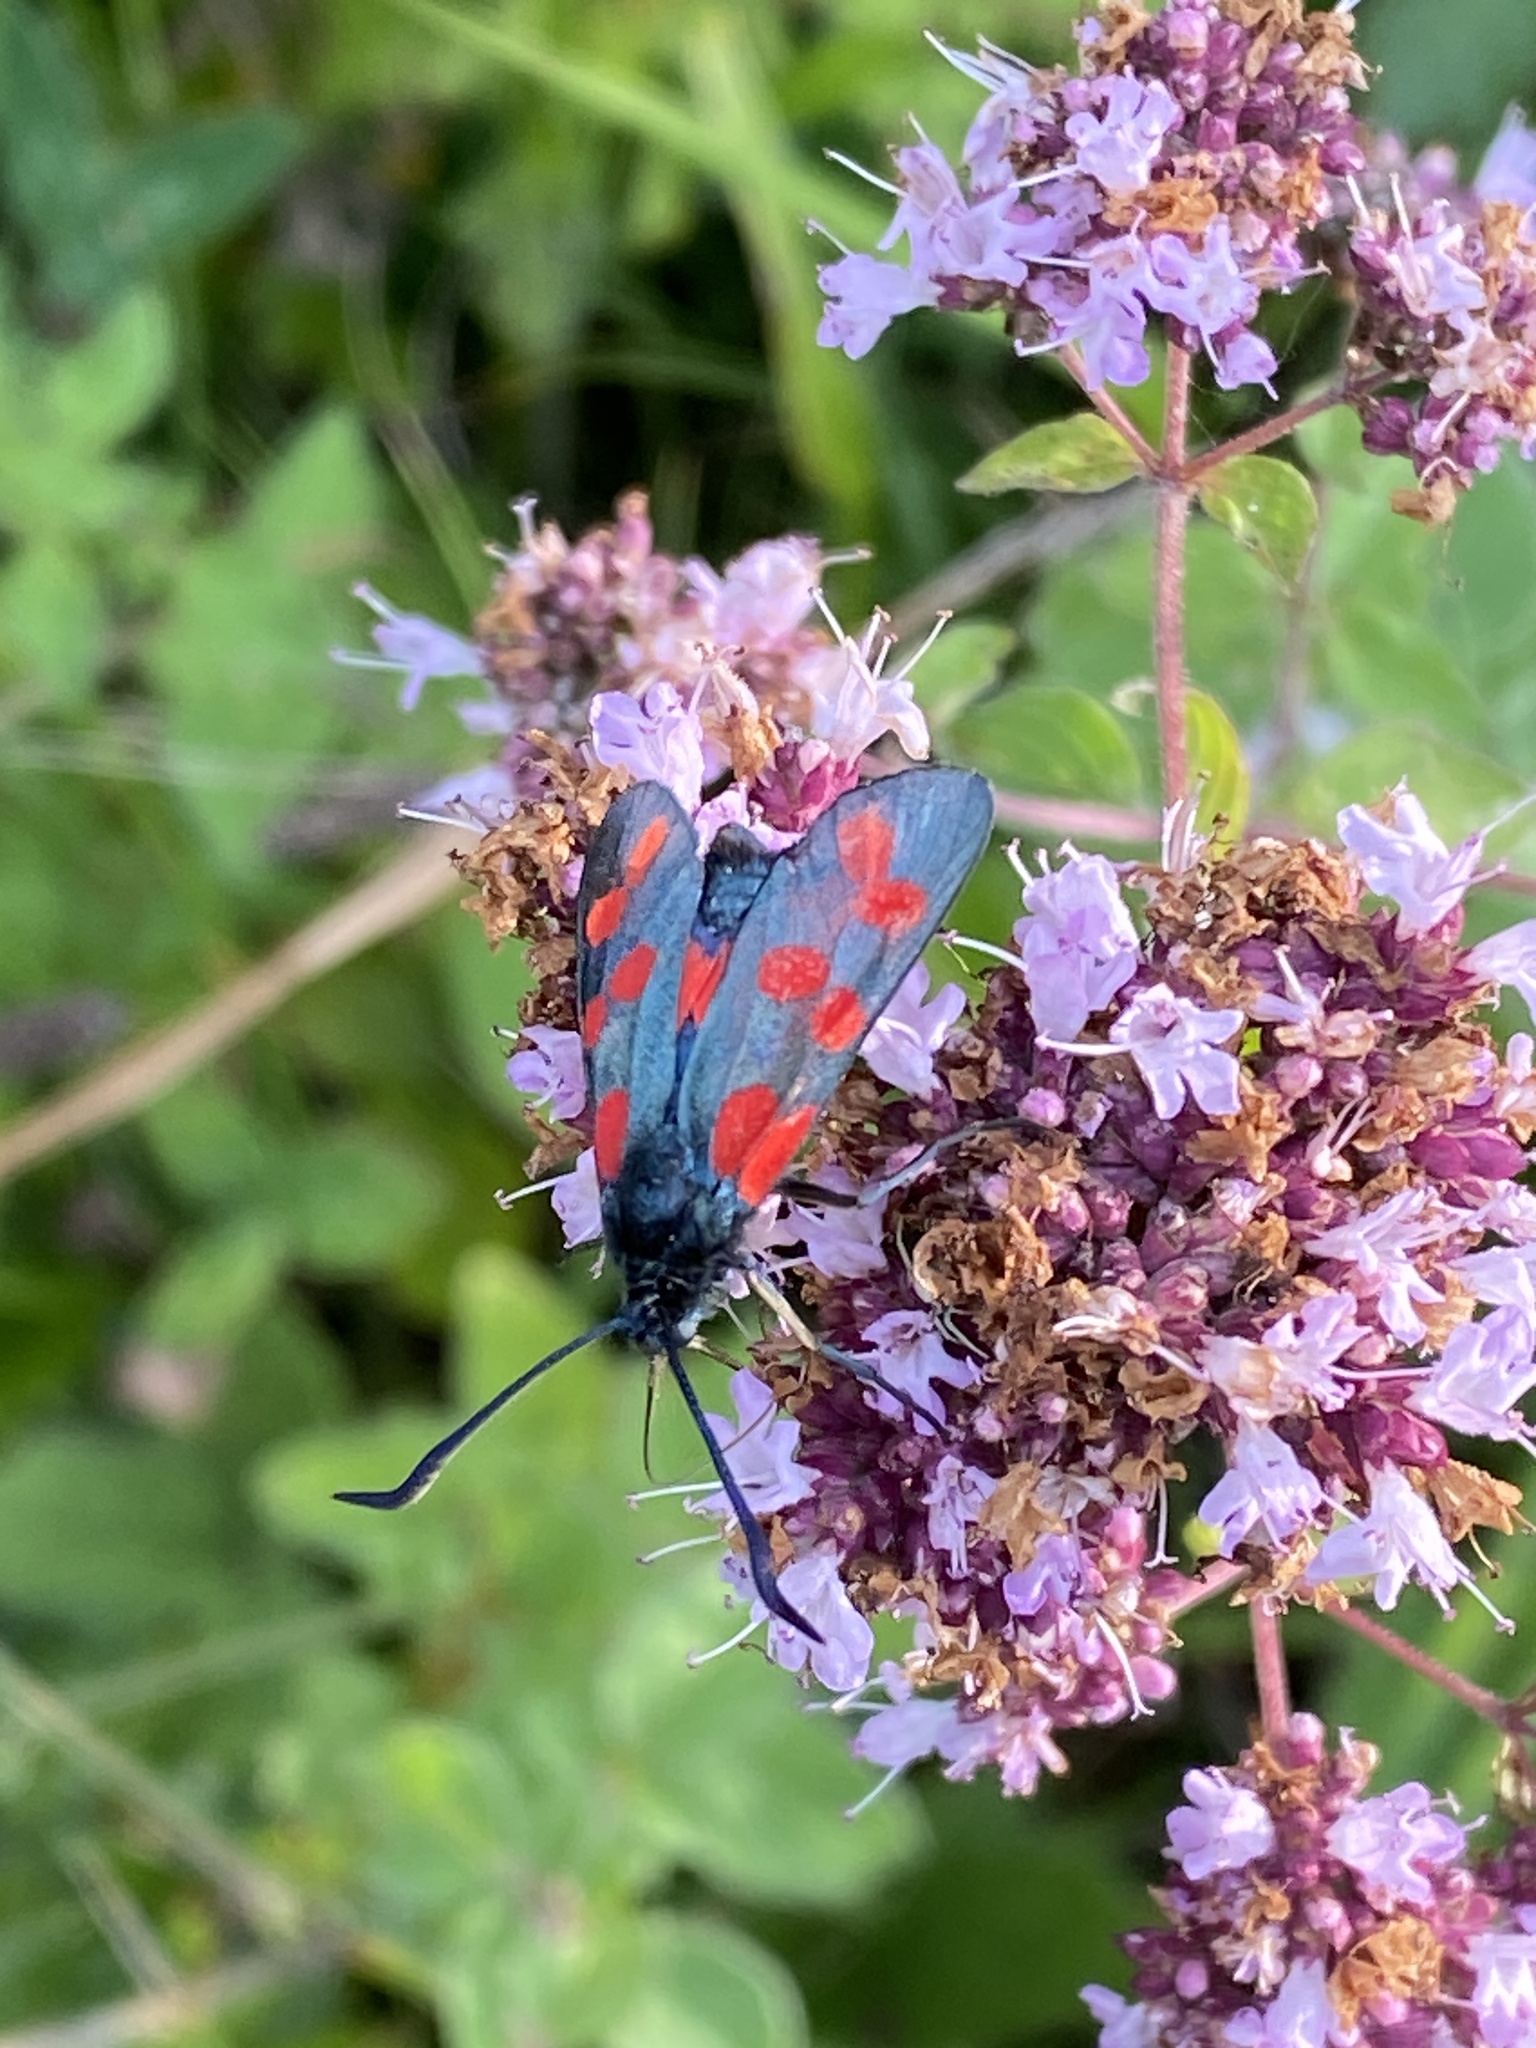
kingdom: Animalia
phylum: Arthropoda
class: Insecta
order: Lepidoptera
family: Zygaenidae
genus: Zygaena
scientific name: Zygaena filipendulae
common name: Six-spot burnet
